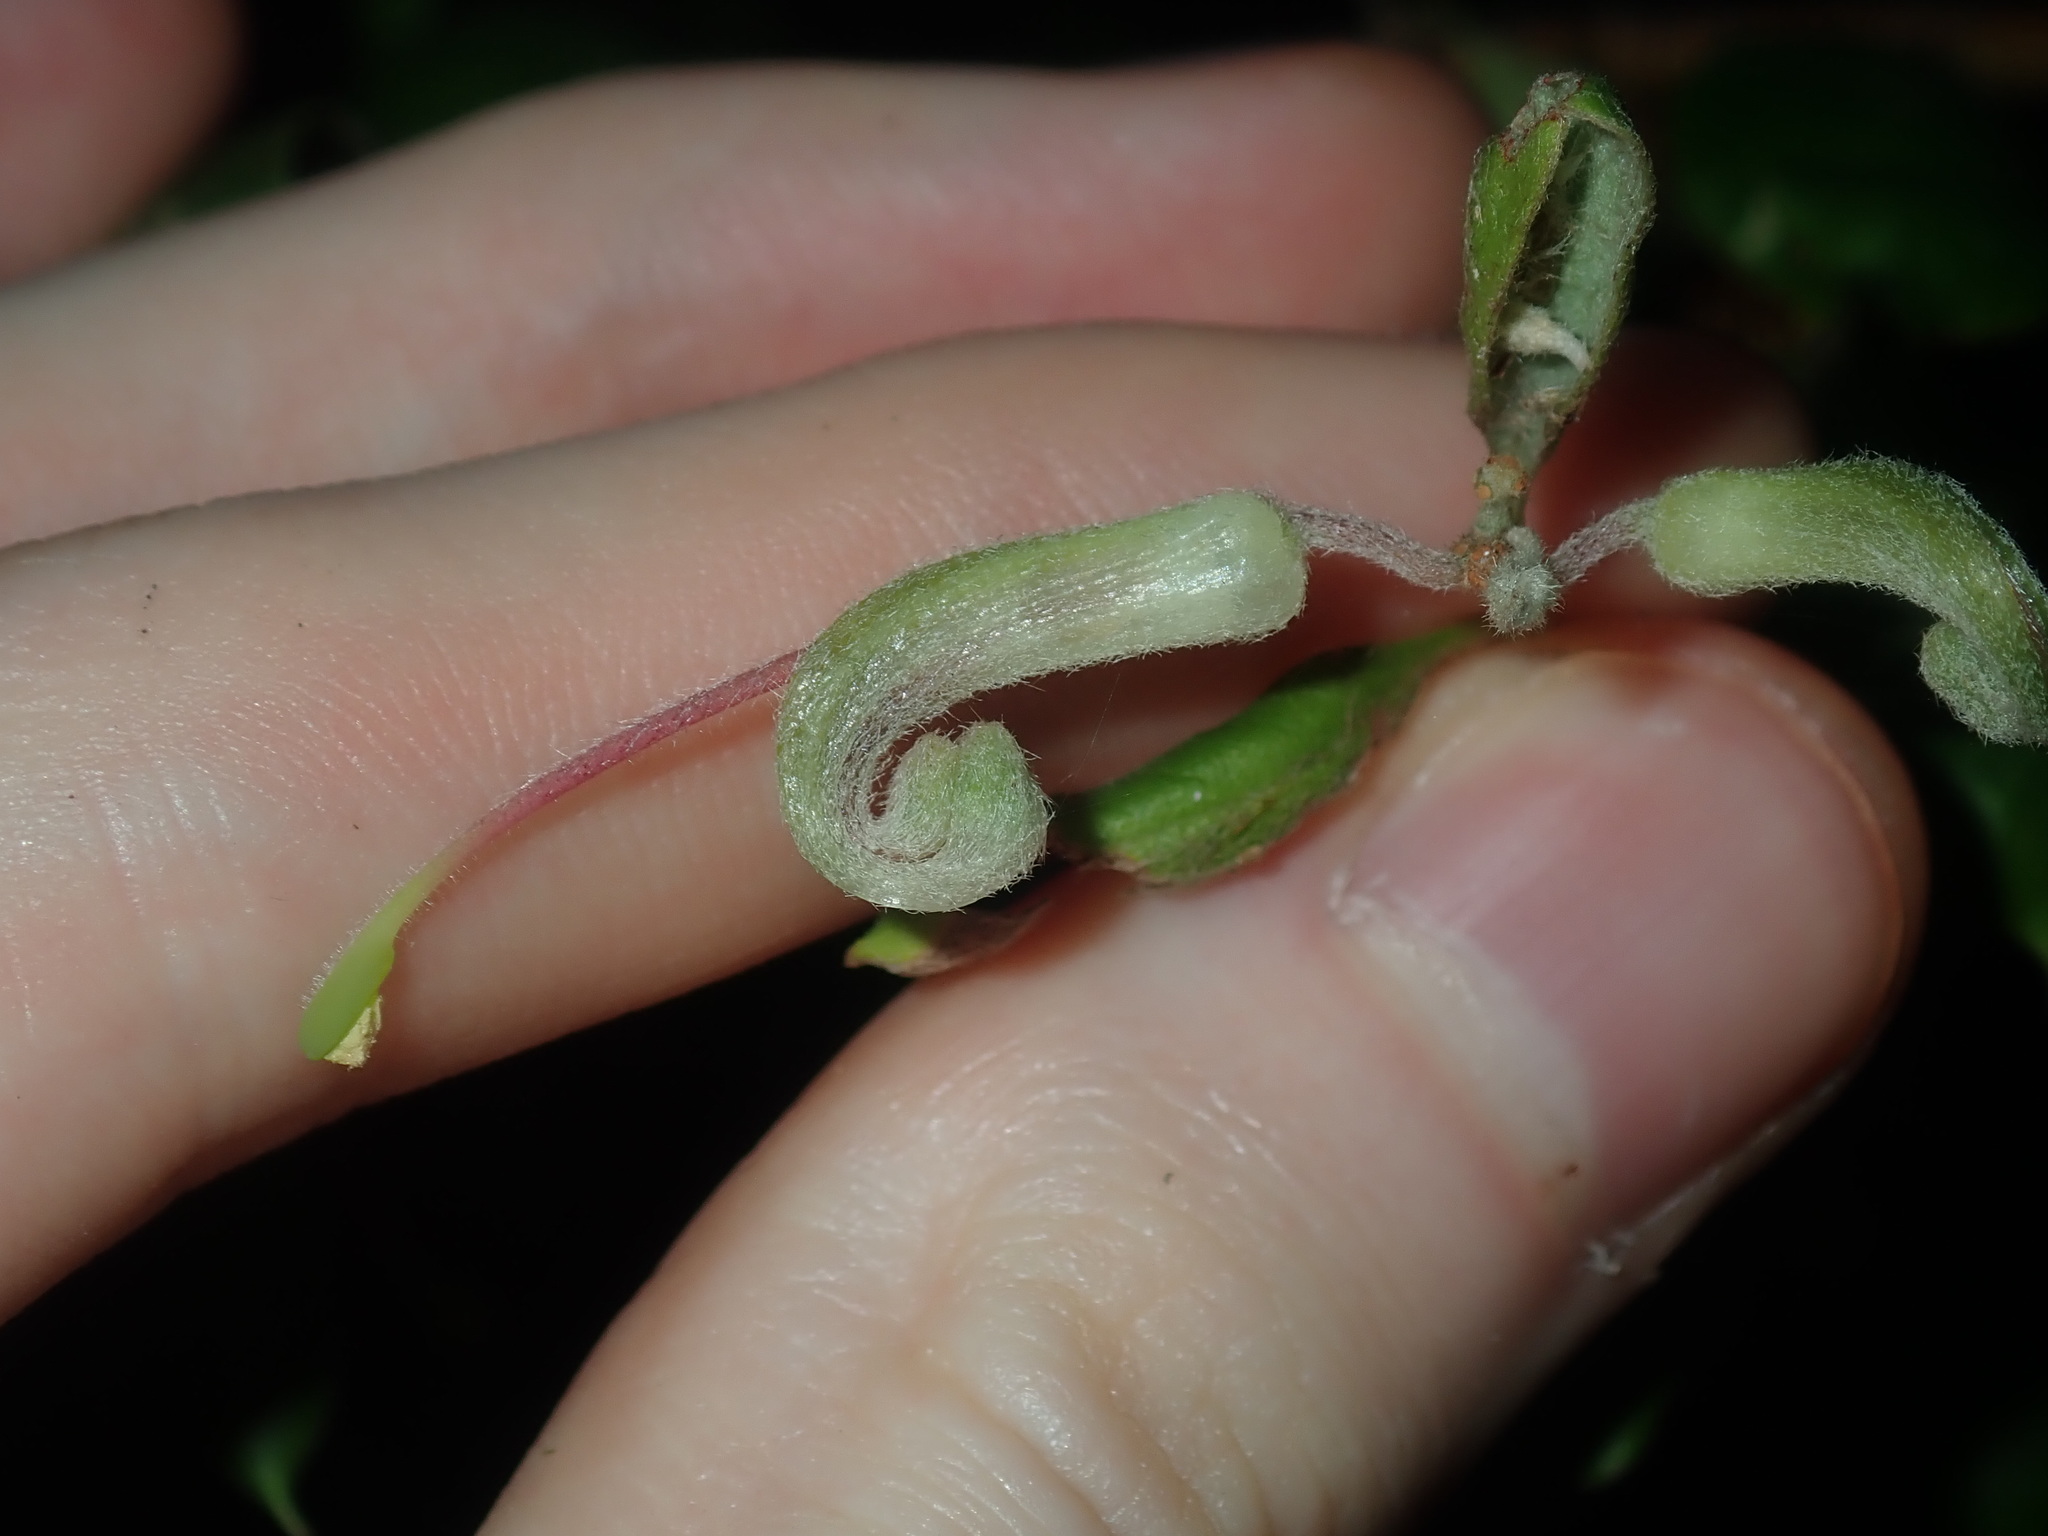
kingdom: Plantae
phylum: Tracheophyta
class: Magnoliopsida
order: Proteales
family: Proteaceae
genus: Grevillea
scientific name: Grevillea mucronulata
